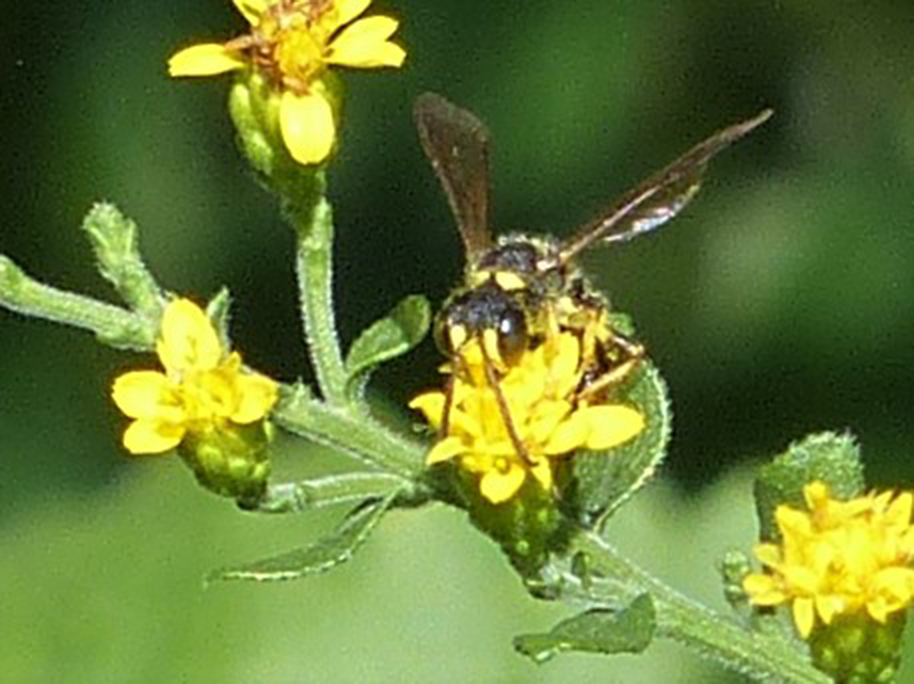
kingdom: Animalia
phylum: Arthropoda
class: Insecta
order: Hymenoptera
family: Crabronidae
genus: Cerceris
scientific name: Cerceris
